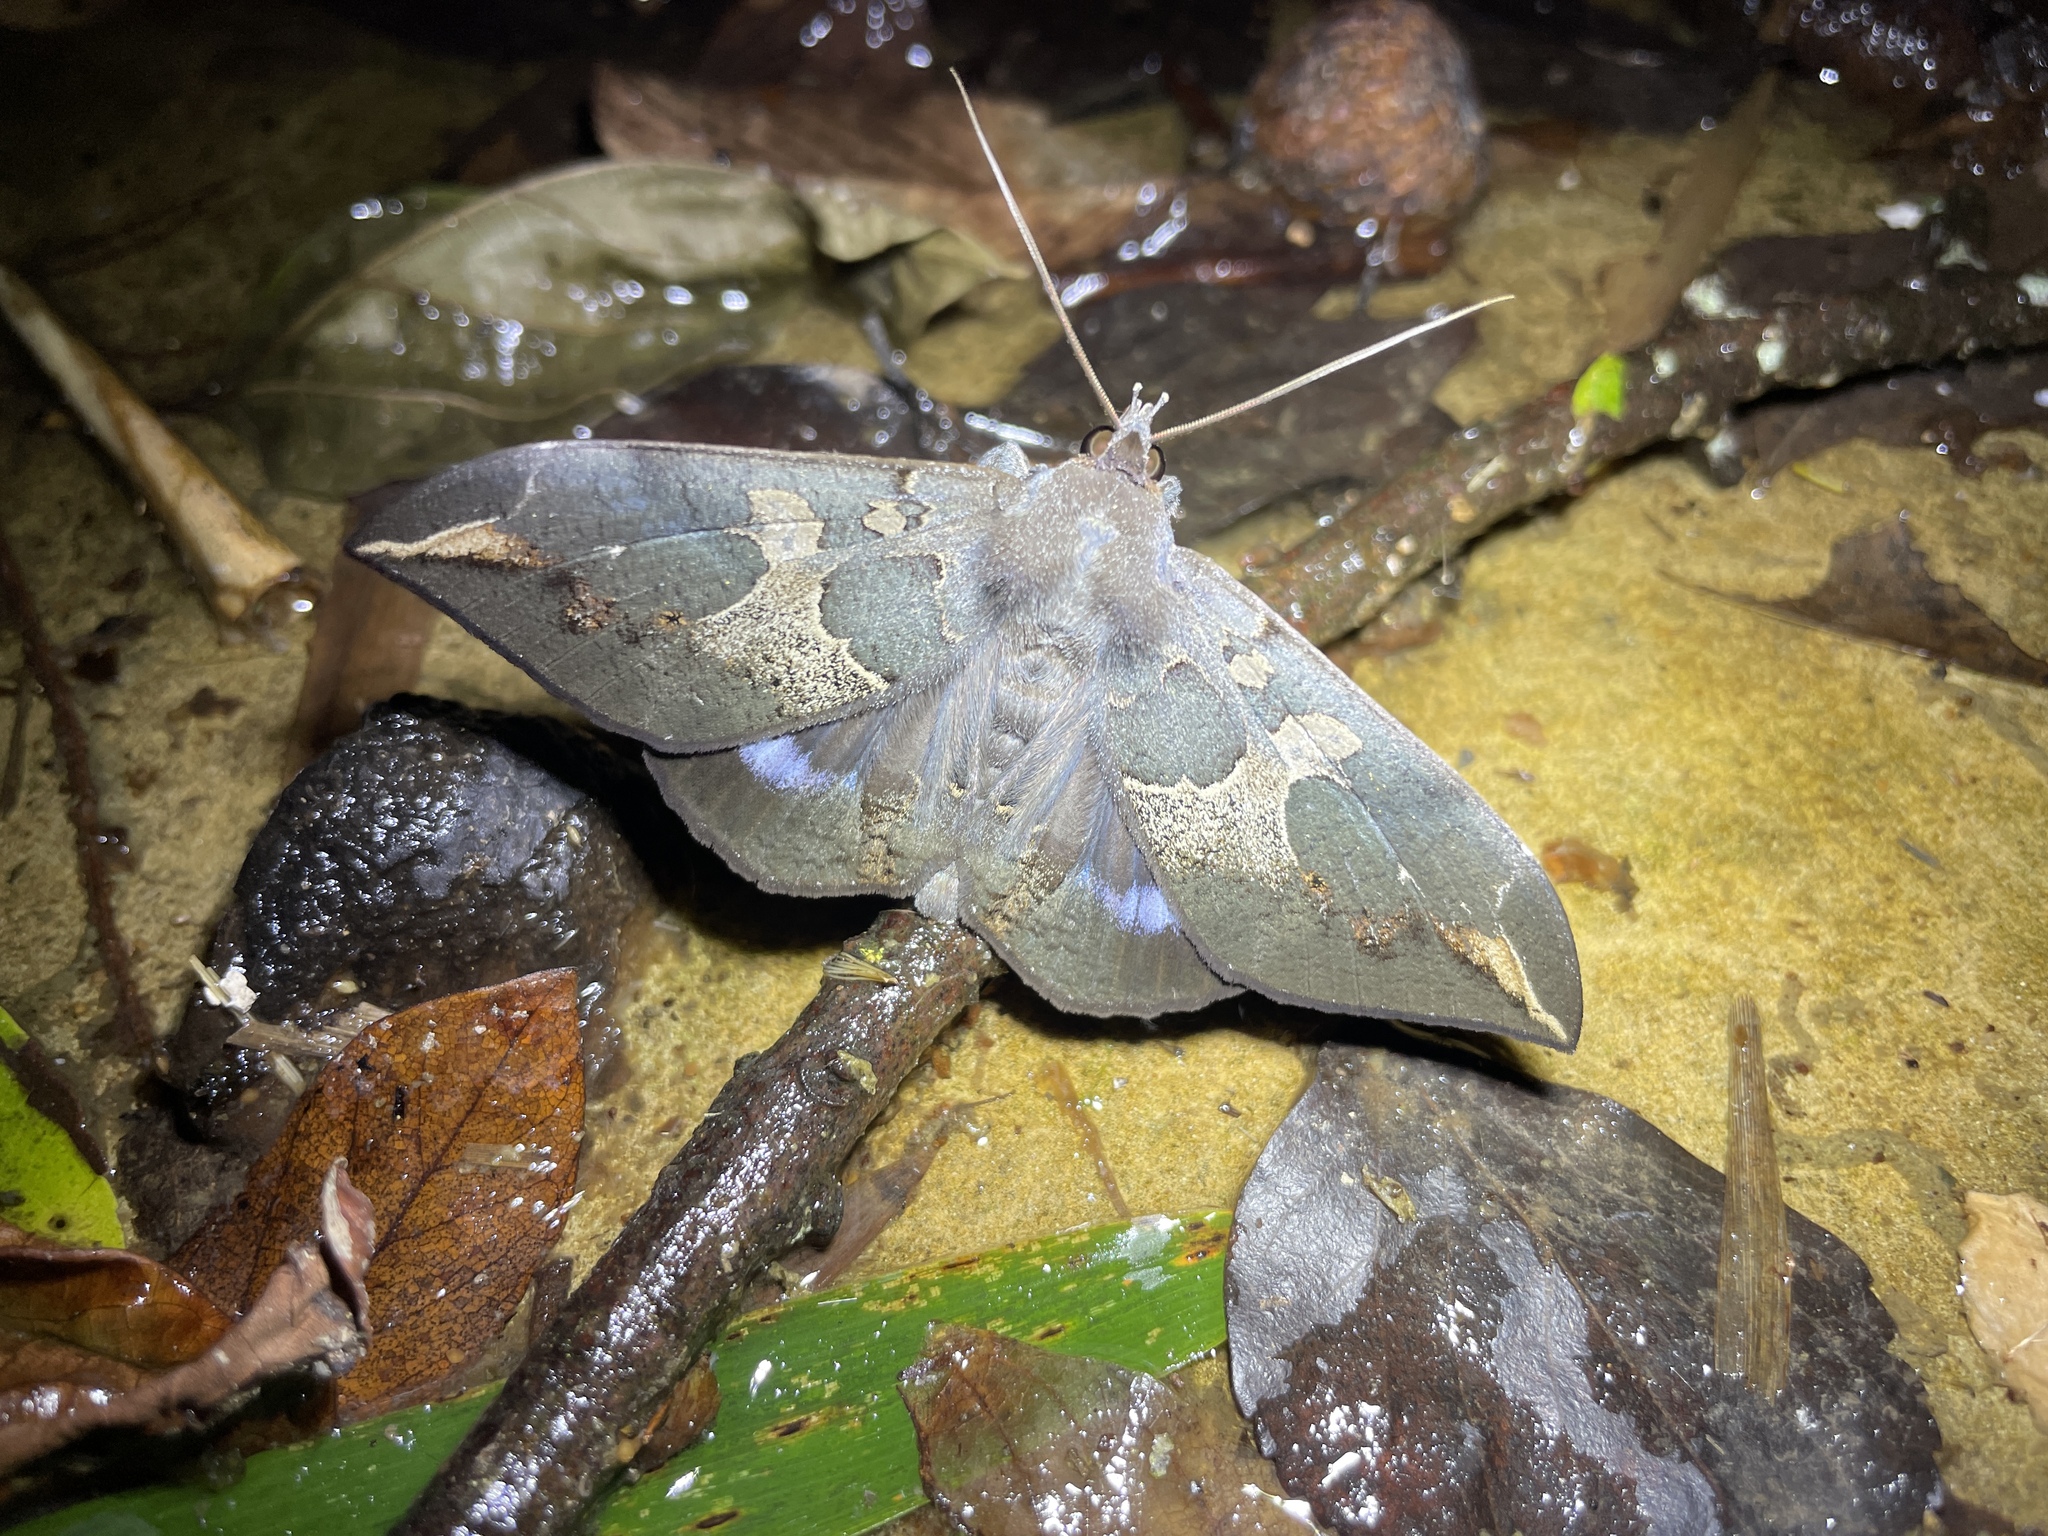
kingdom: Animalia
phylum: Arthropoda
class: Insecta
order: Lepidoptera
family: Erebidae
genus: Ischyja
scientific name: Ischyja ferrifracta
